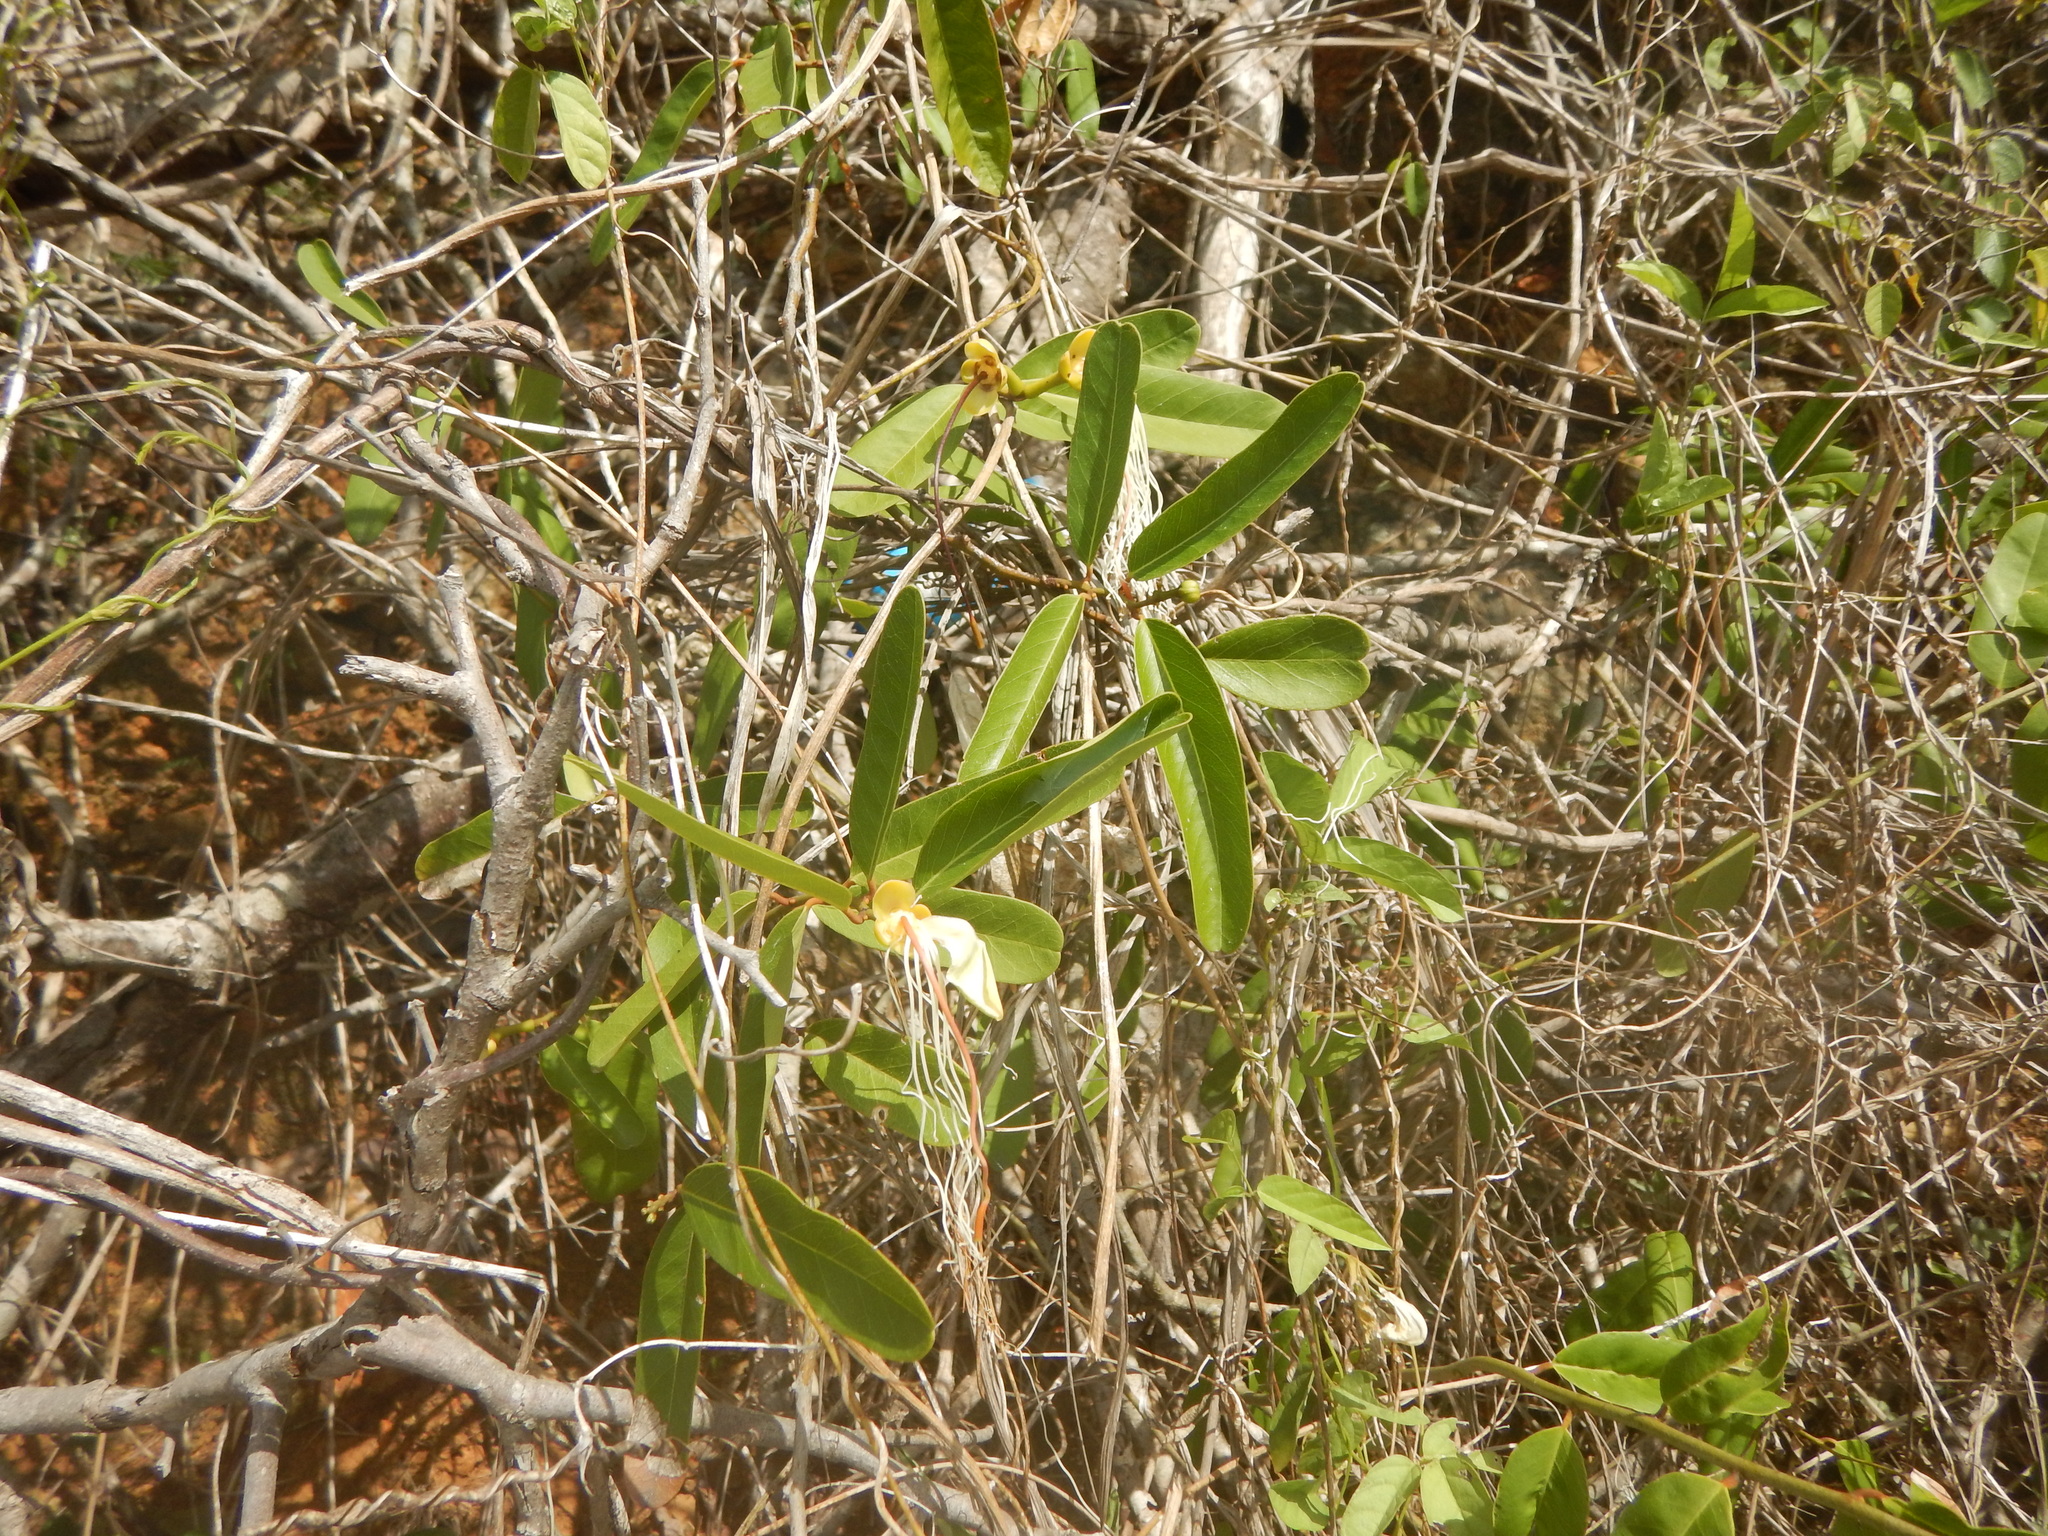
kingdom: Plantae
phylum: Tracheophyta
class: Magnoliopsida
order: Brassicales
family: Capparaceae
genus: Cynophalla
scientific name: Cynophalla flexuosa
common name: Capertree
